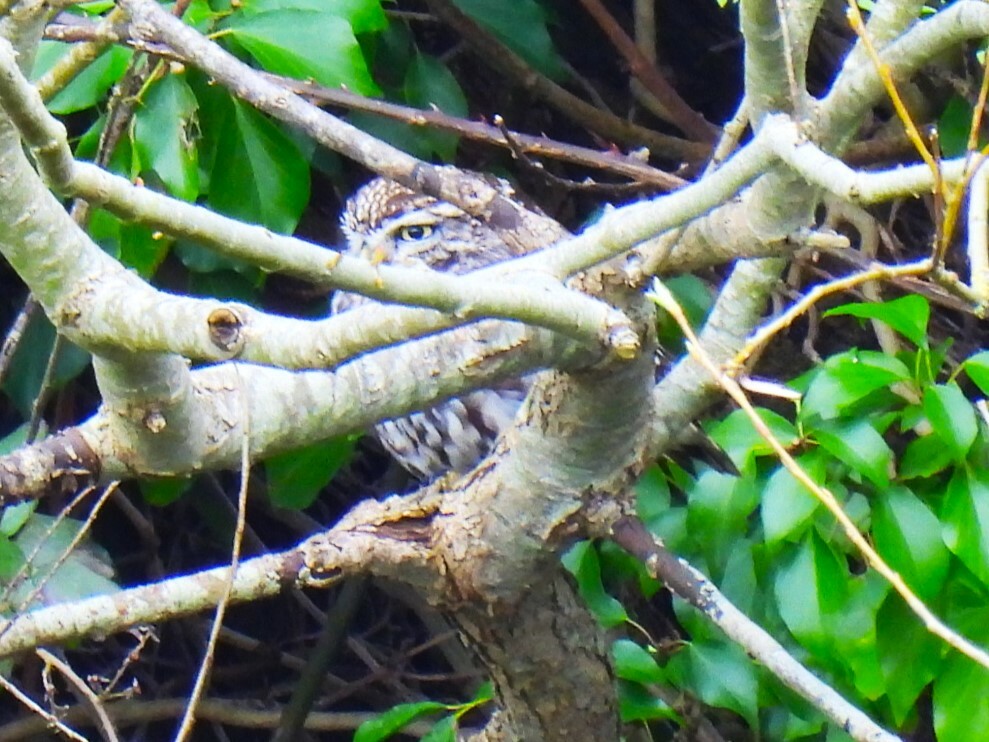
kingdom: Animalia
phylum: Chordata
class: Aves
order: Strigiformes
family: Strigidae
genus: Athene
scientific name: Athene noctua
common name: Little owl
